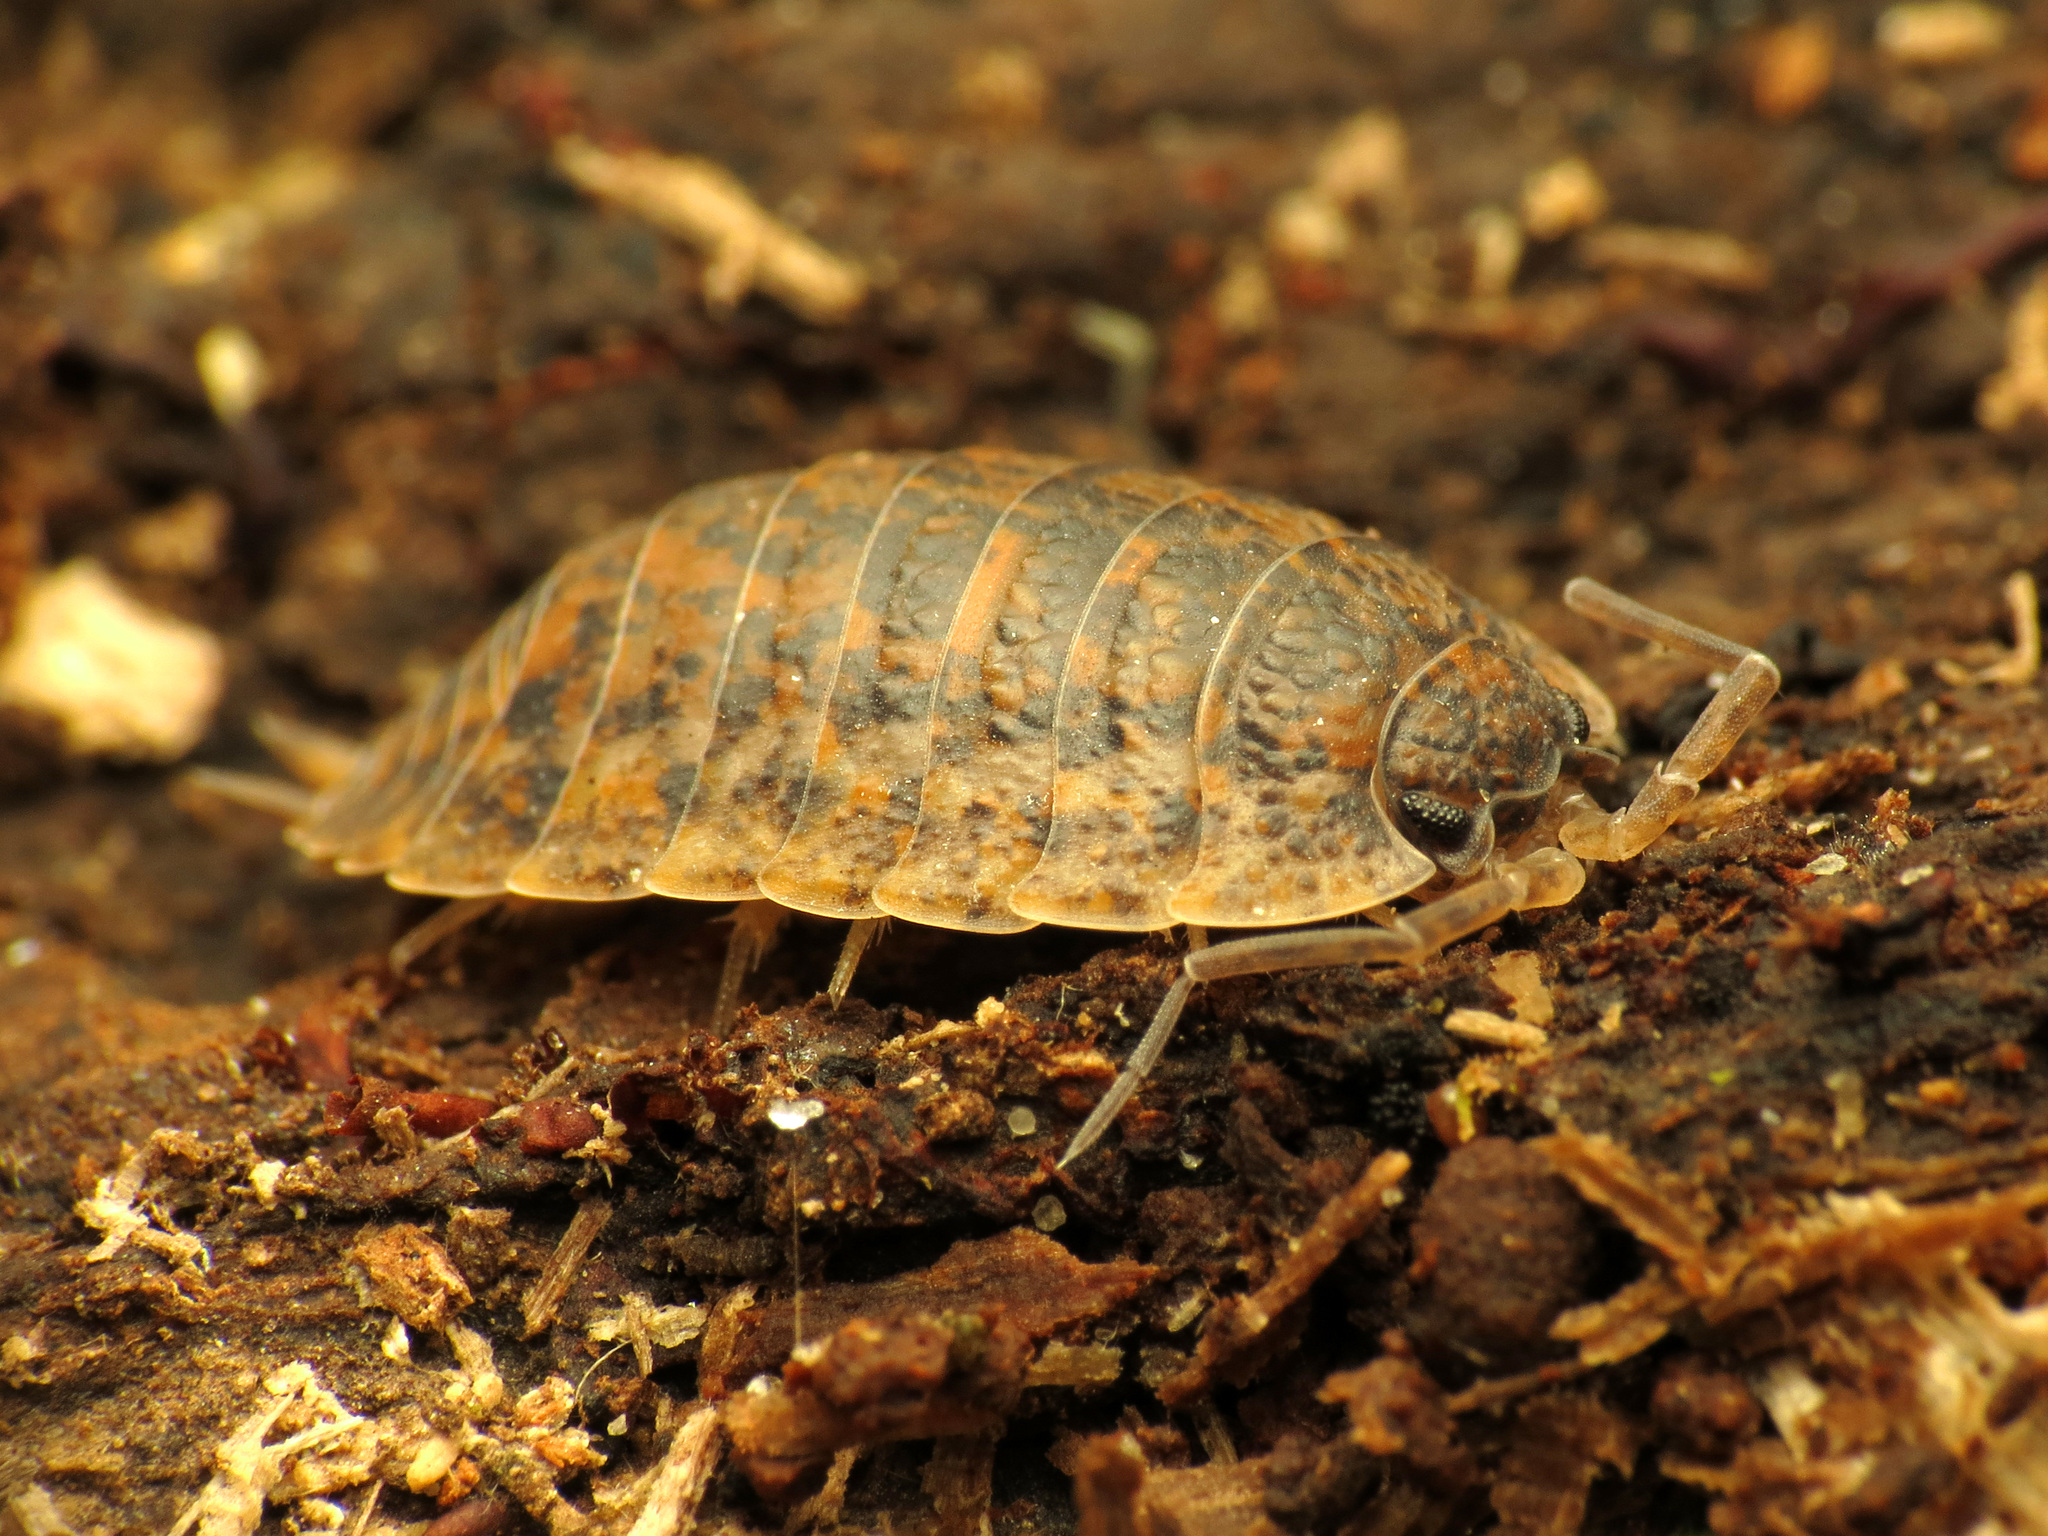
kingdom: Animalia
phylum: Arthropoda
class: Malacostraca
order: Isopoda
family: Trachelipodidae
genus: Trachelipus
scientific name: Trachelipus rathkii
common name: Isopod
